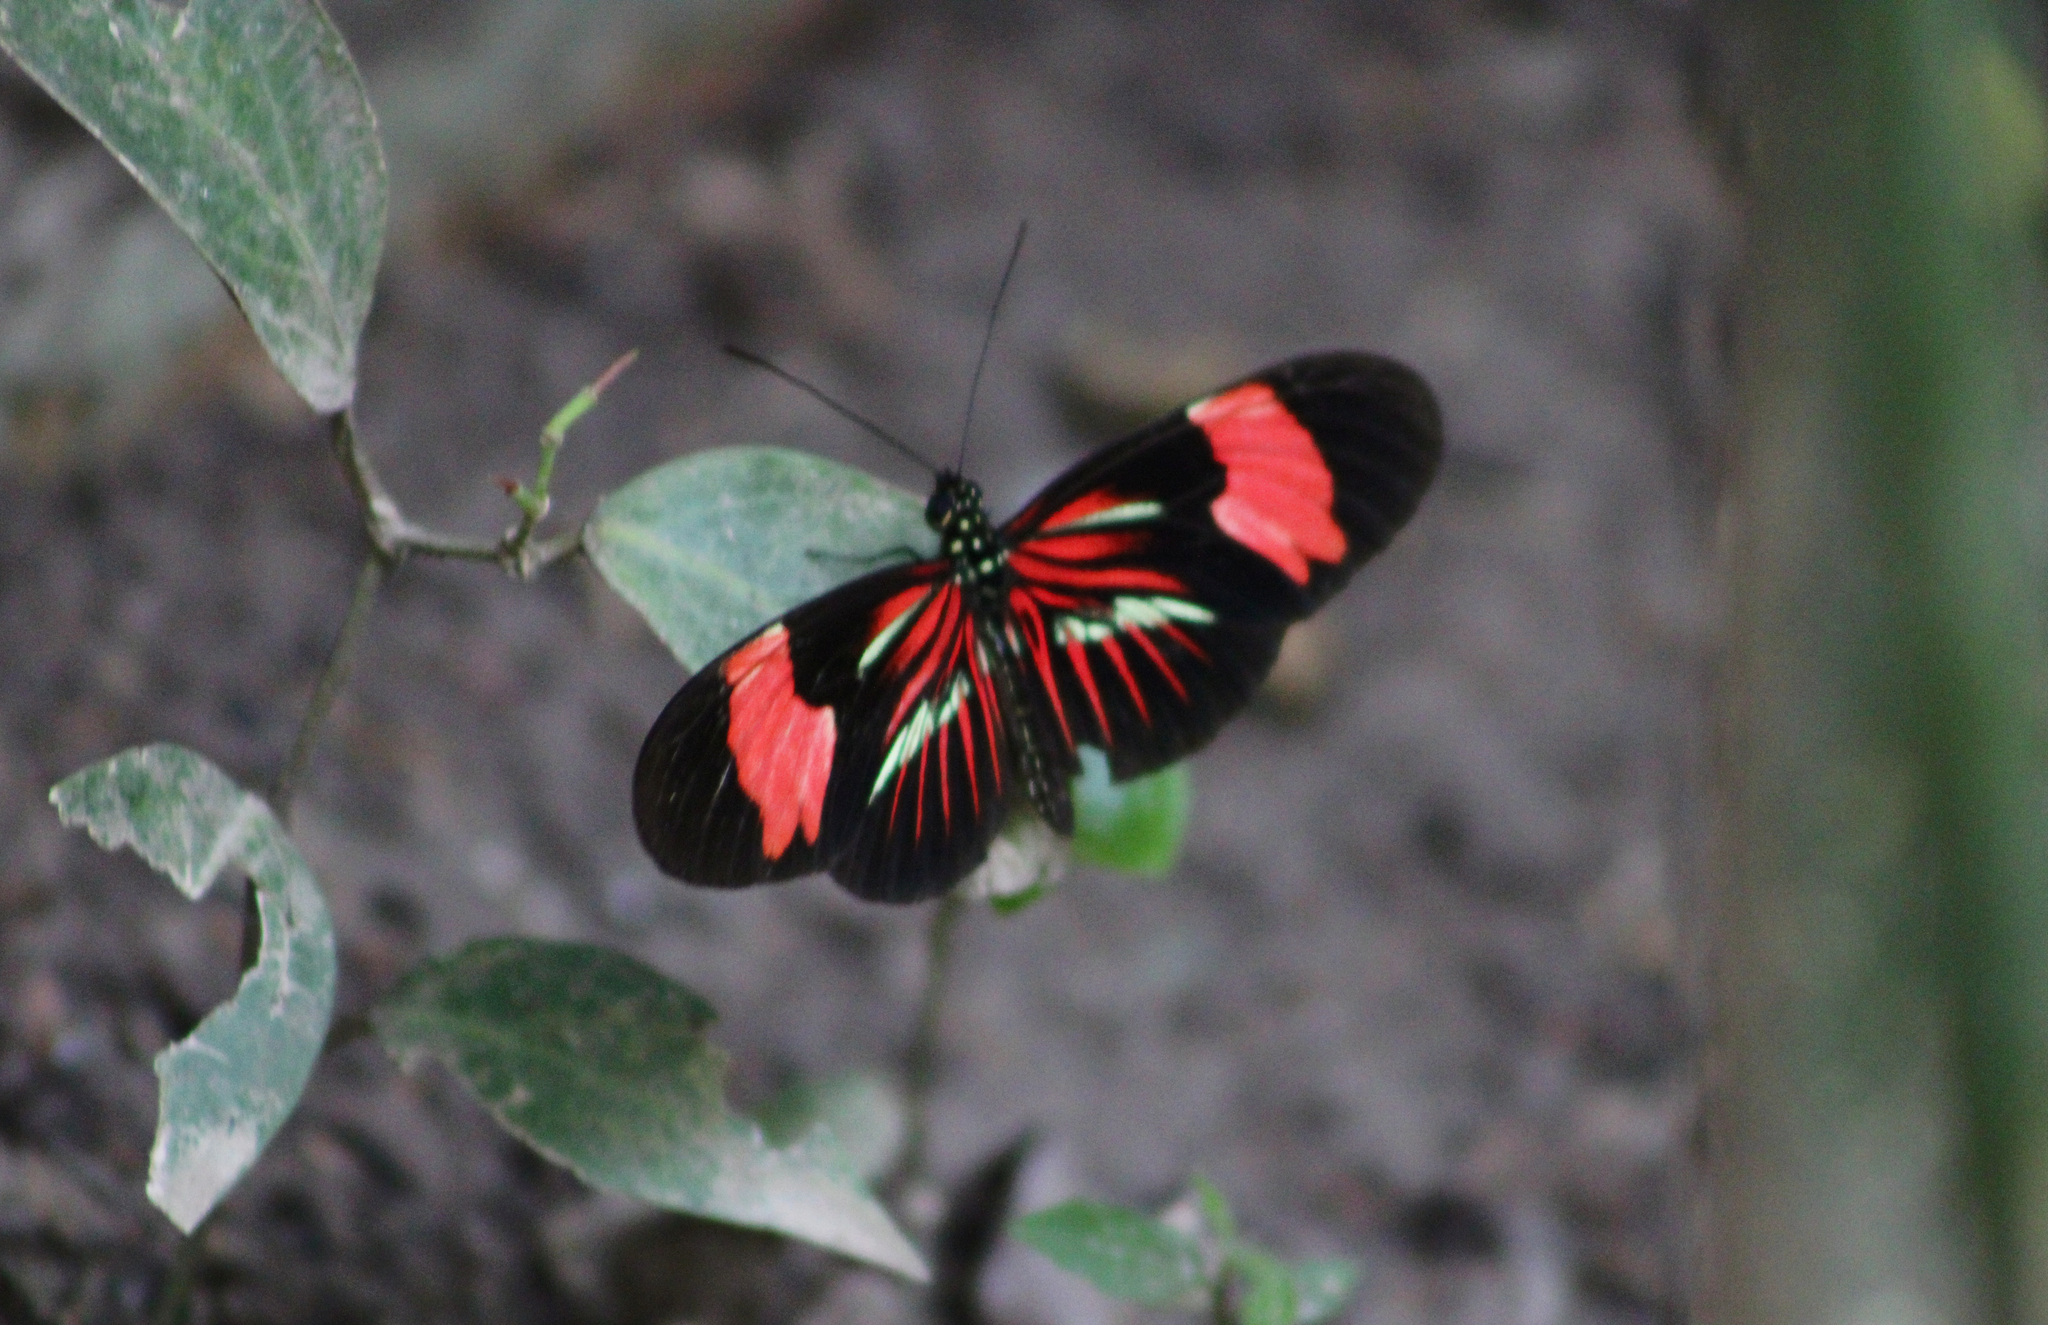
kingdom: Animalia
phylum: Arthropoda
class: Insecta
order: Lepidoptera
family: Nymphalidae
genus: Heliconius
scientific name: Heliconius erato
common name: Common patch longwing
